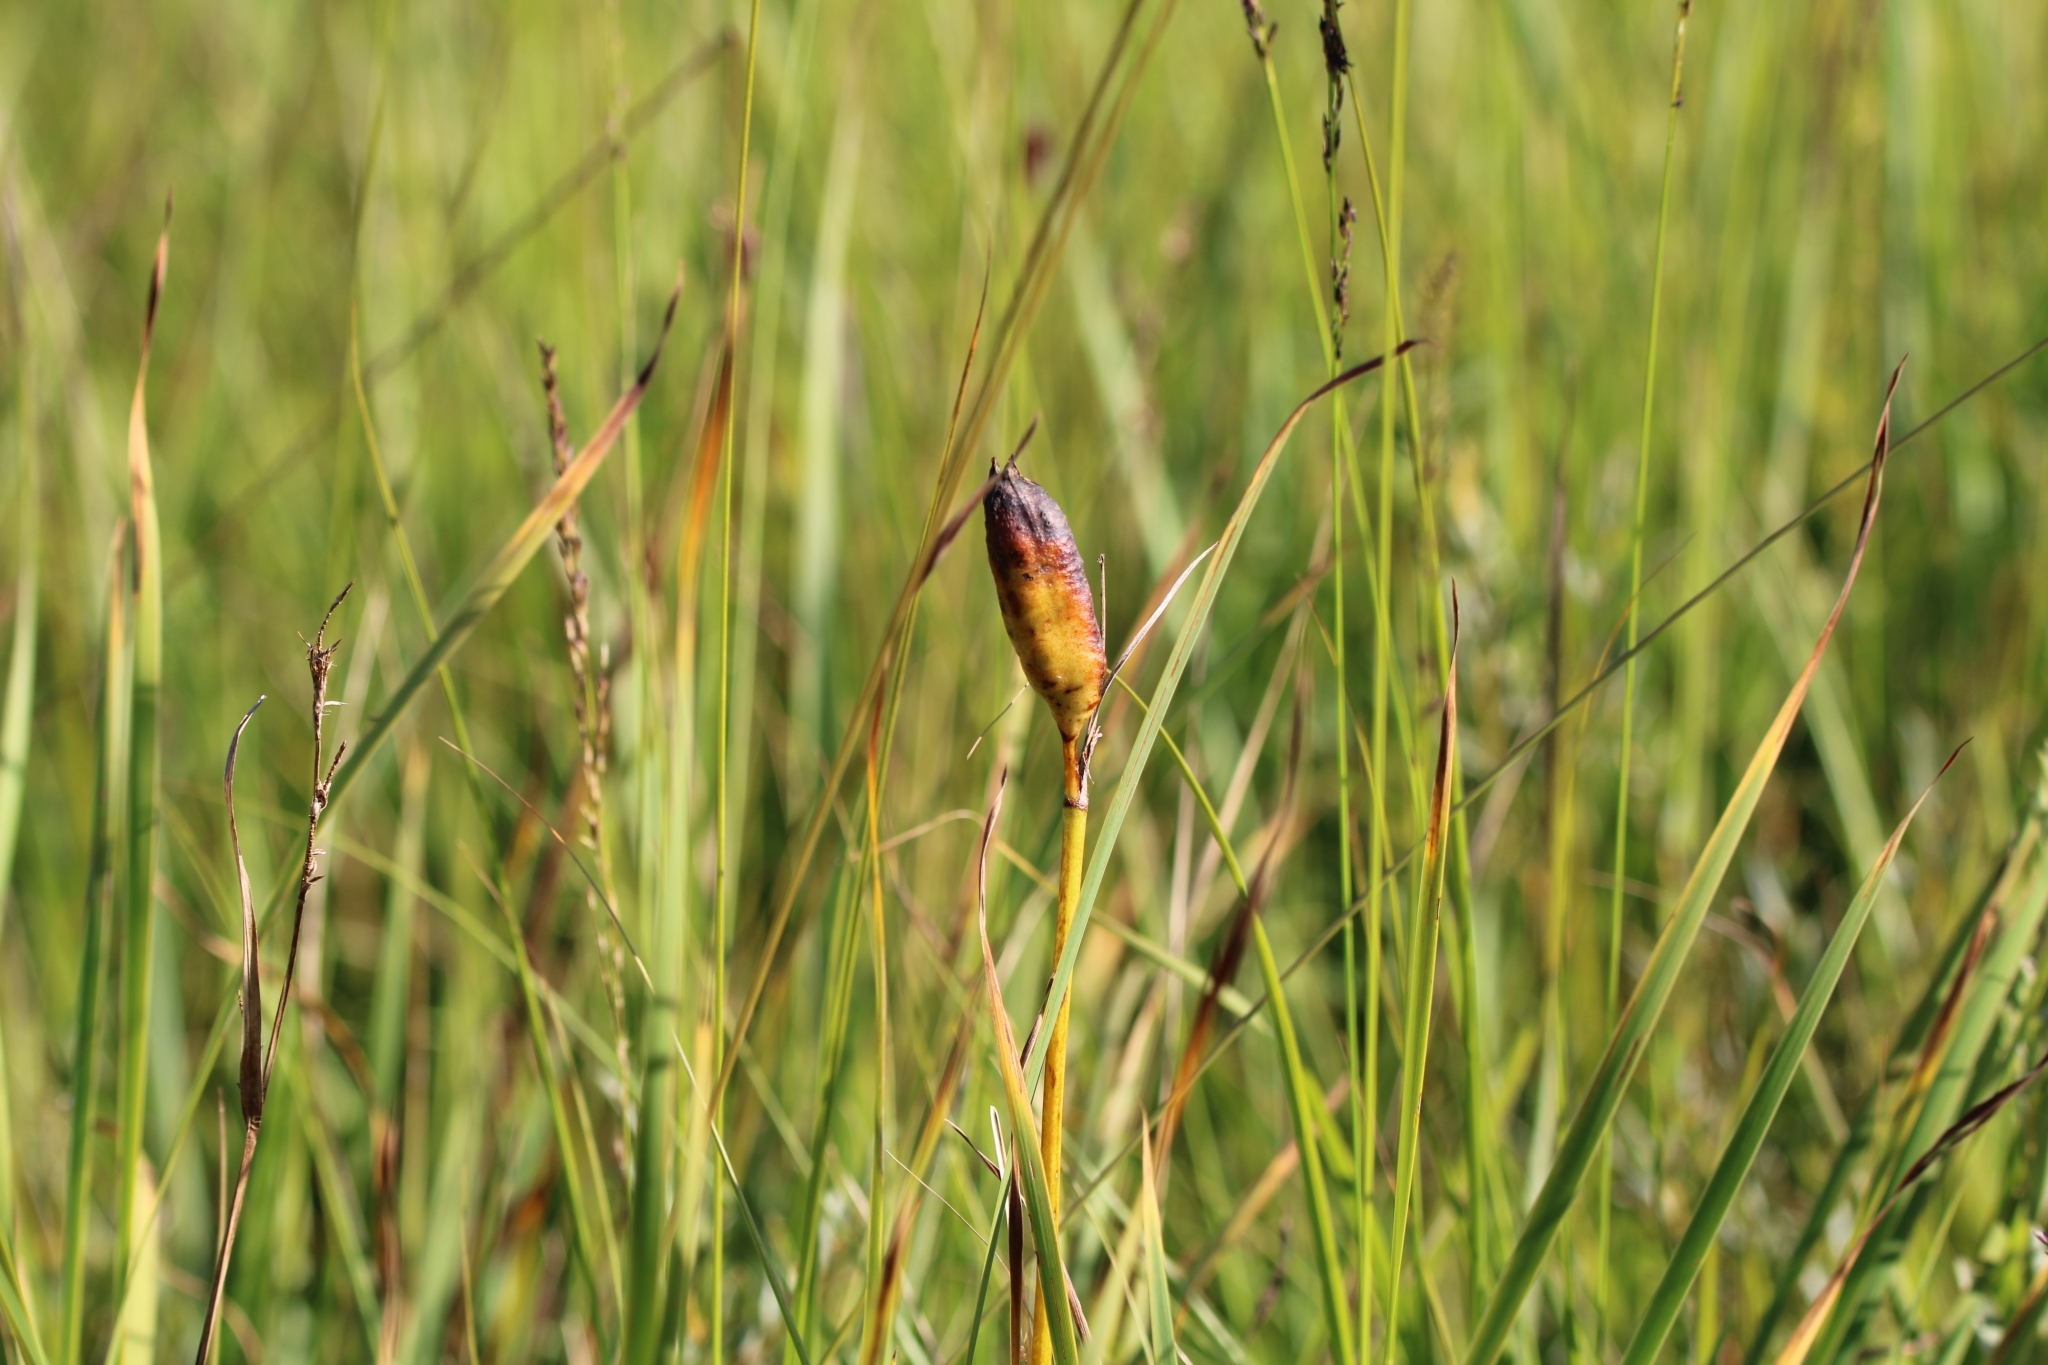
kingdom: Plantae
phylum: Tracheophyta
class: Liliopsida
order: Asparagales
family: Iridaceae
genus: Iris
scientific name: Iris sibirica
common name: Siberian iris
